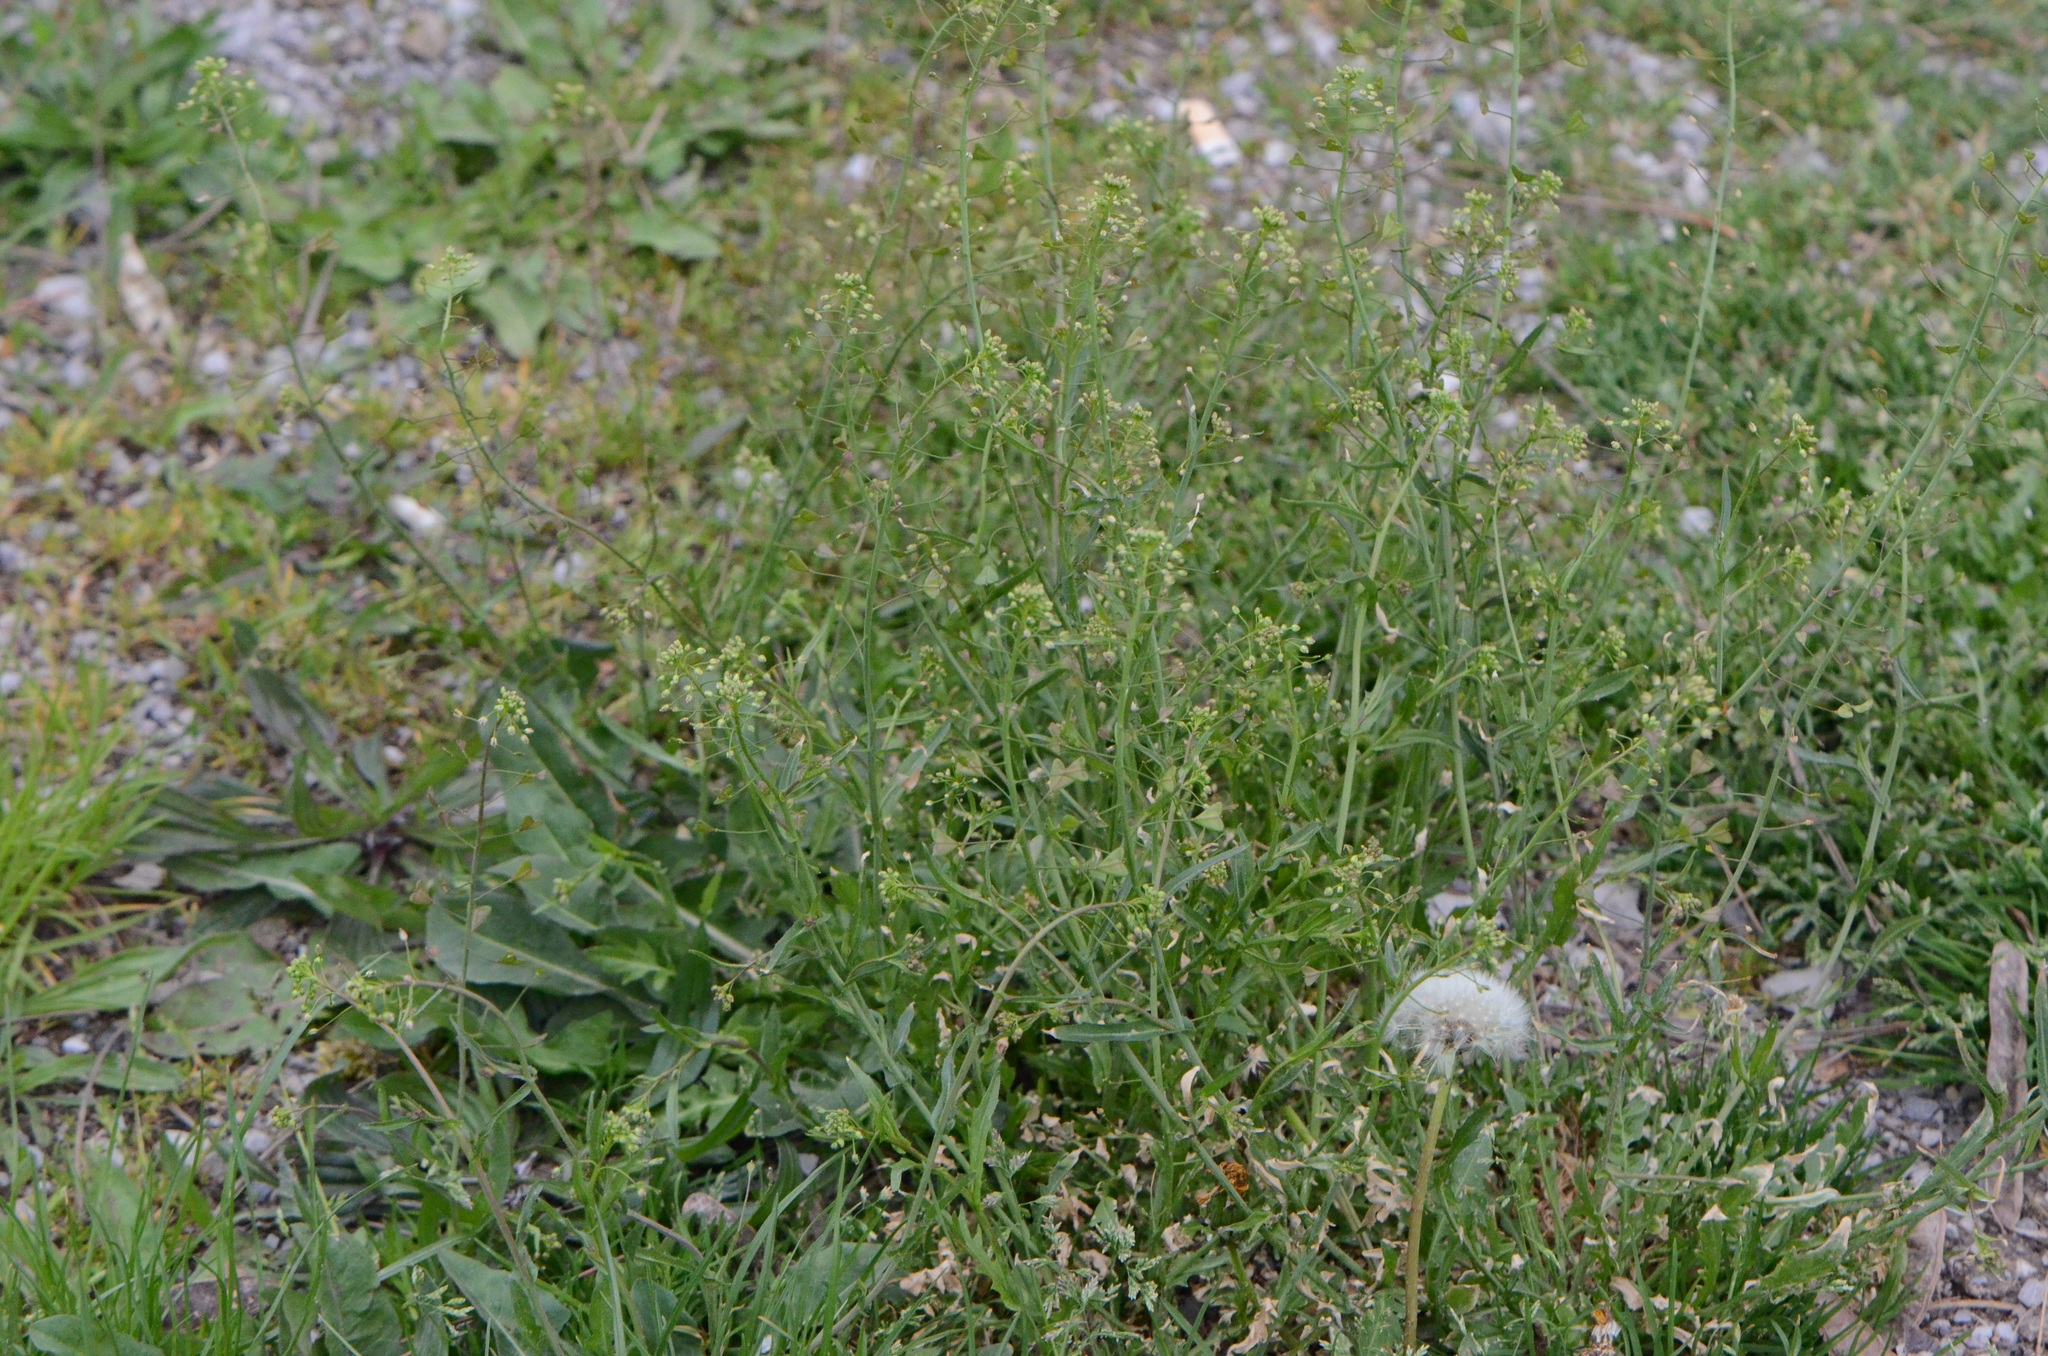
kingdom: Plantae
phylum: Tracheophyta
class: Magnoliopsida
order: Brassicales
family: Brassicaceae
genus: Capsella
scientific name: Capsella bursa-pastoris
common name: Shepherd's purse
